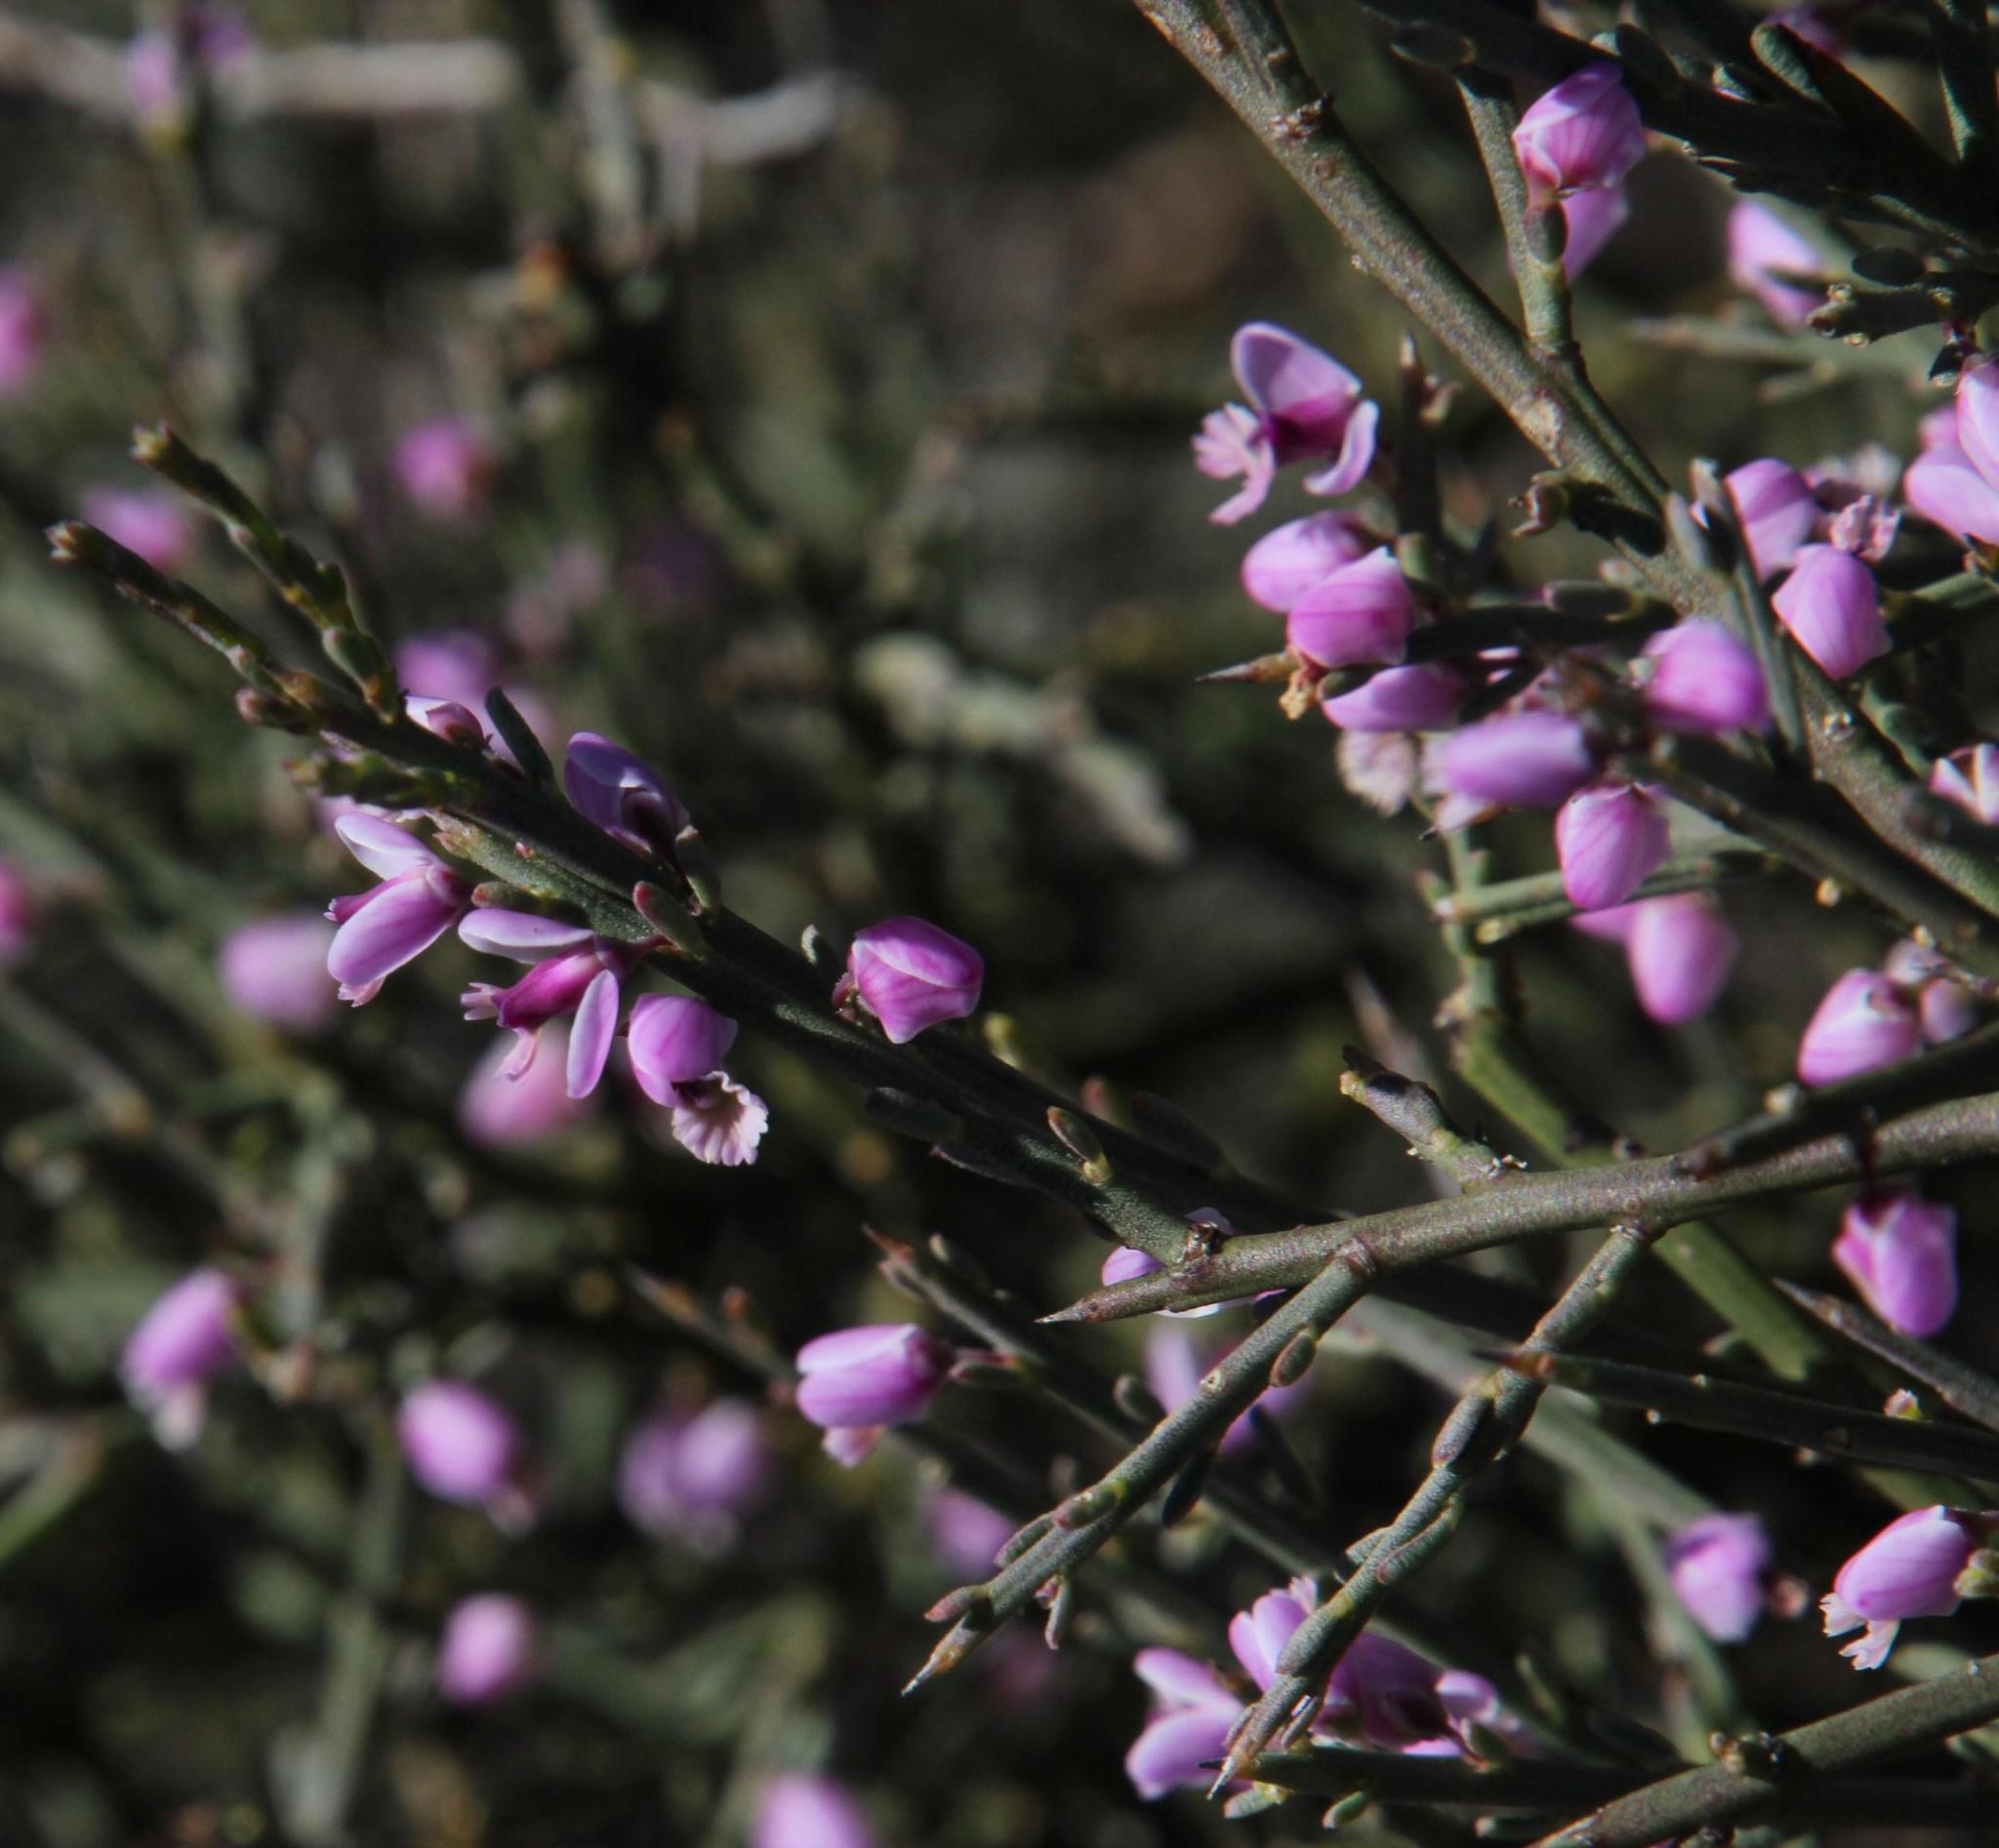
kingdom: Plantae
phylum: Tracheophyta
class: Magnoliopsida
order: Fabales
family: Polygalaceae
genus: Muraltia
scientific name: Muraltia spinosa
